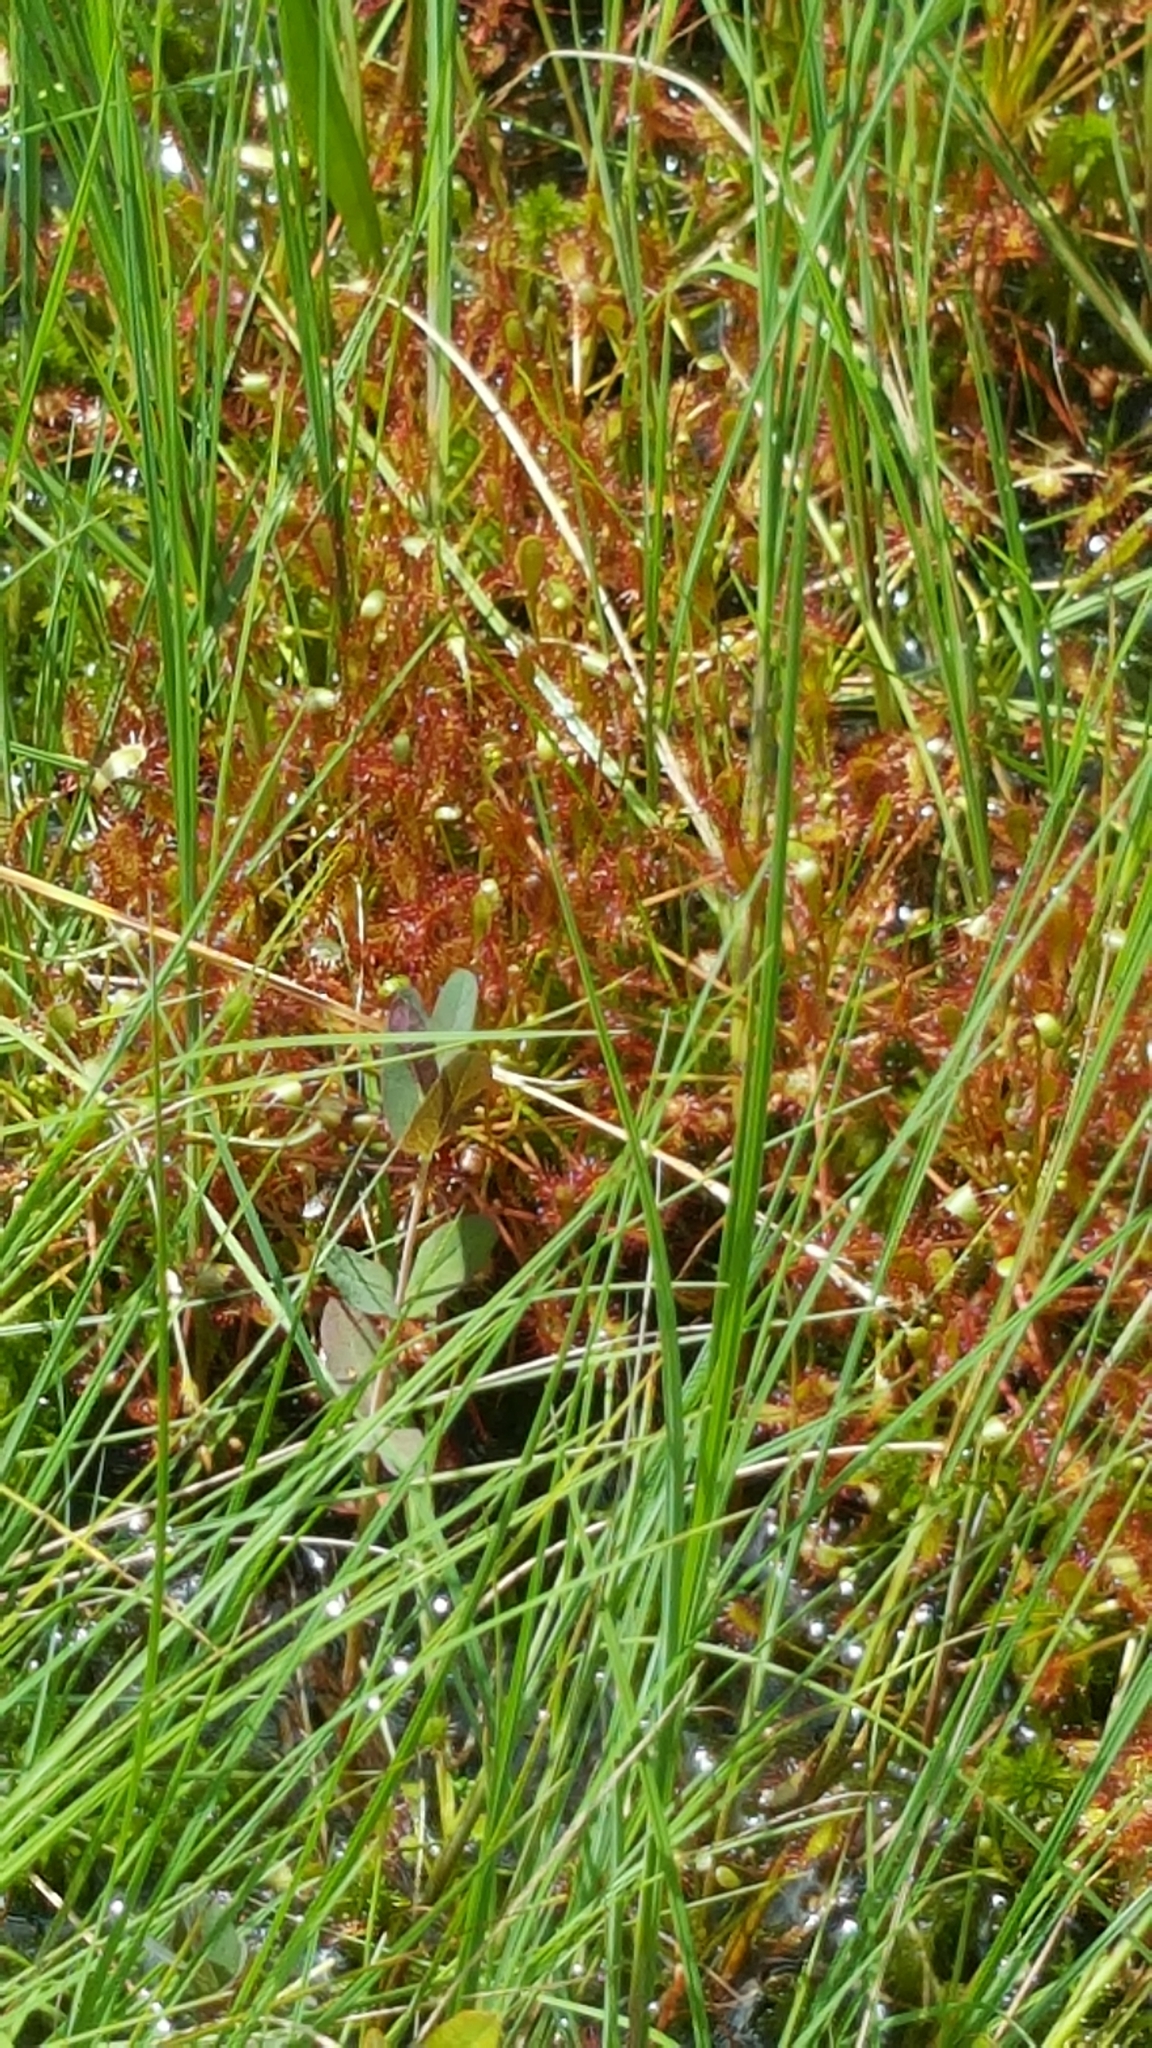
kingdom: Plantae
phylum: Tracheophyta
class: Magnoliopsida
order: Caryophyllales
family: Droseraceae
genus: Drosera
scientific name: Drosera intermedia
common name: Oblong-leaved sundew
